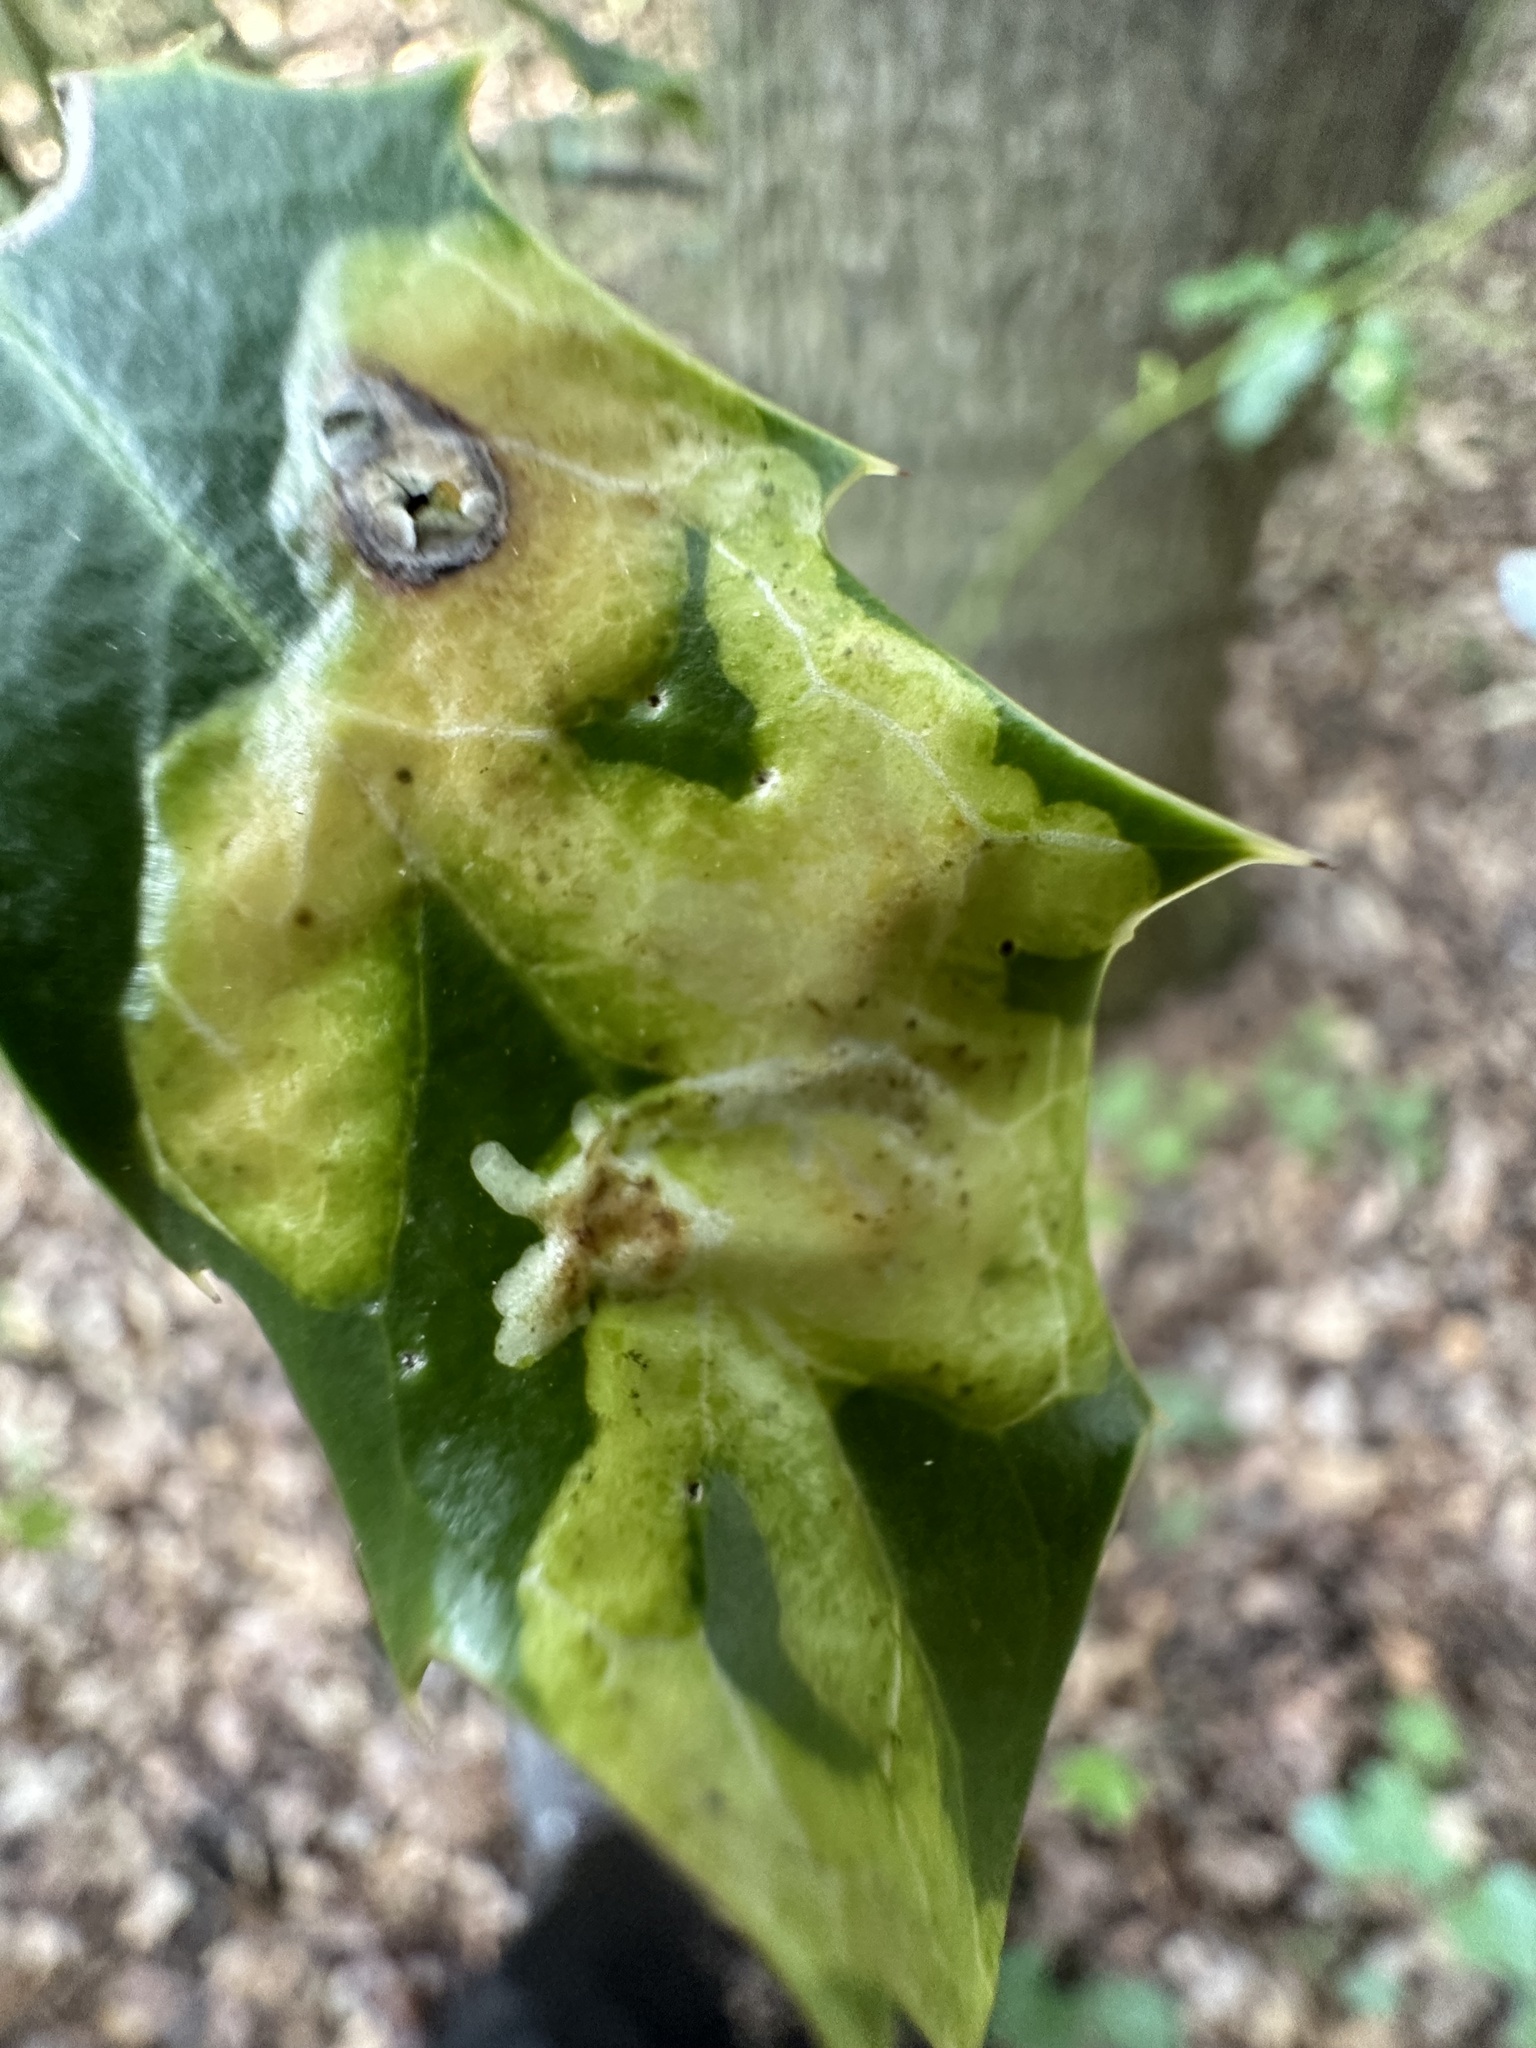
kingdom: Animalia
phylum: Arthropoda
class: Insecta
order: Diptera
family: Agromyzidae
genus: Phytomyza
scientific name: Phytomyza ilicis
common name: Holly leafminer
